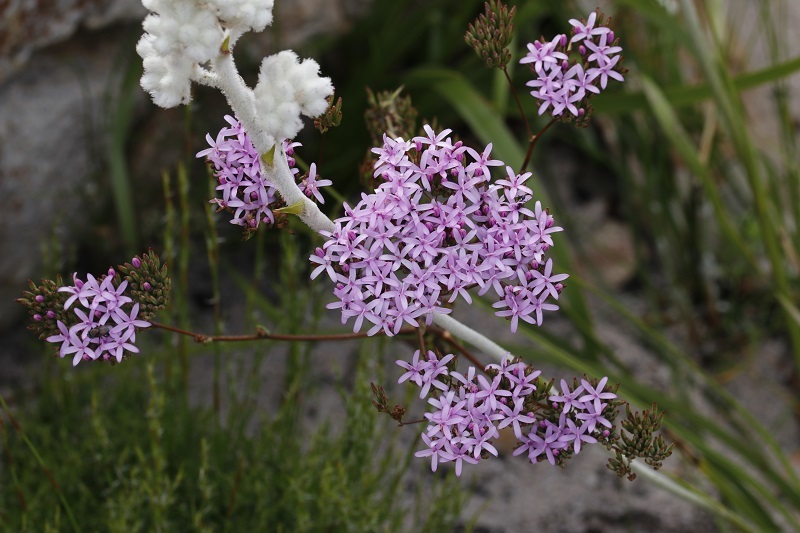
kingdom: Plantae
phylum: Tracheophyta
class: Magnoliopsida
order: Asterales
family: Asteraceae
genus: Corymbium
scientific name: Corymbium africanum
